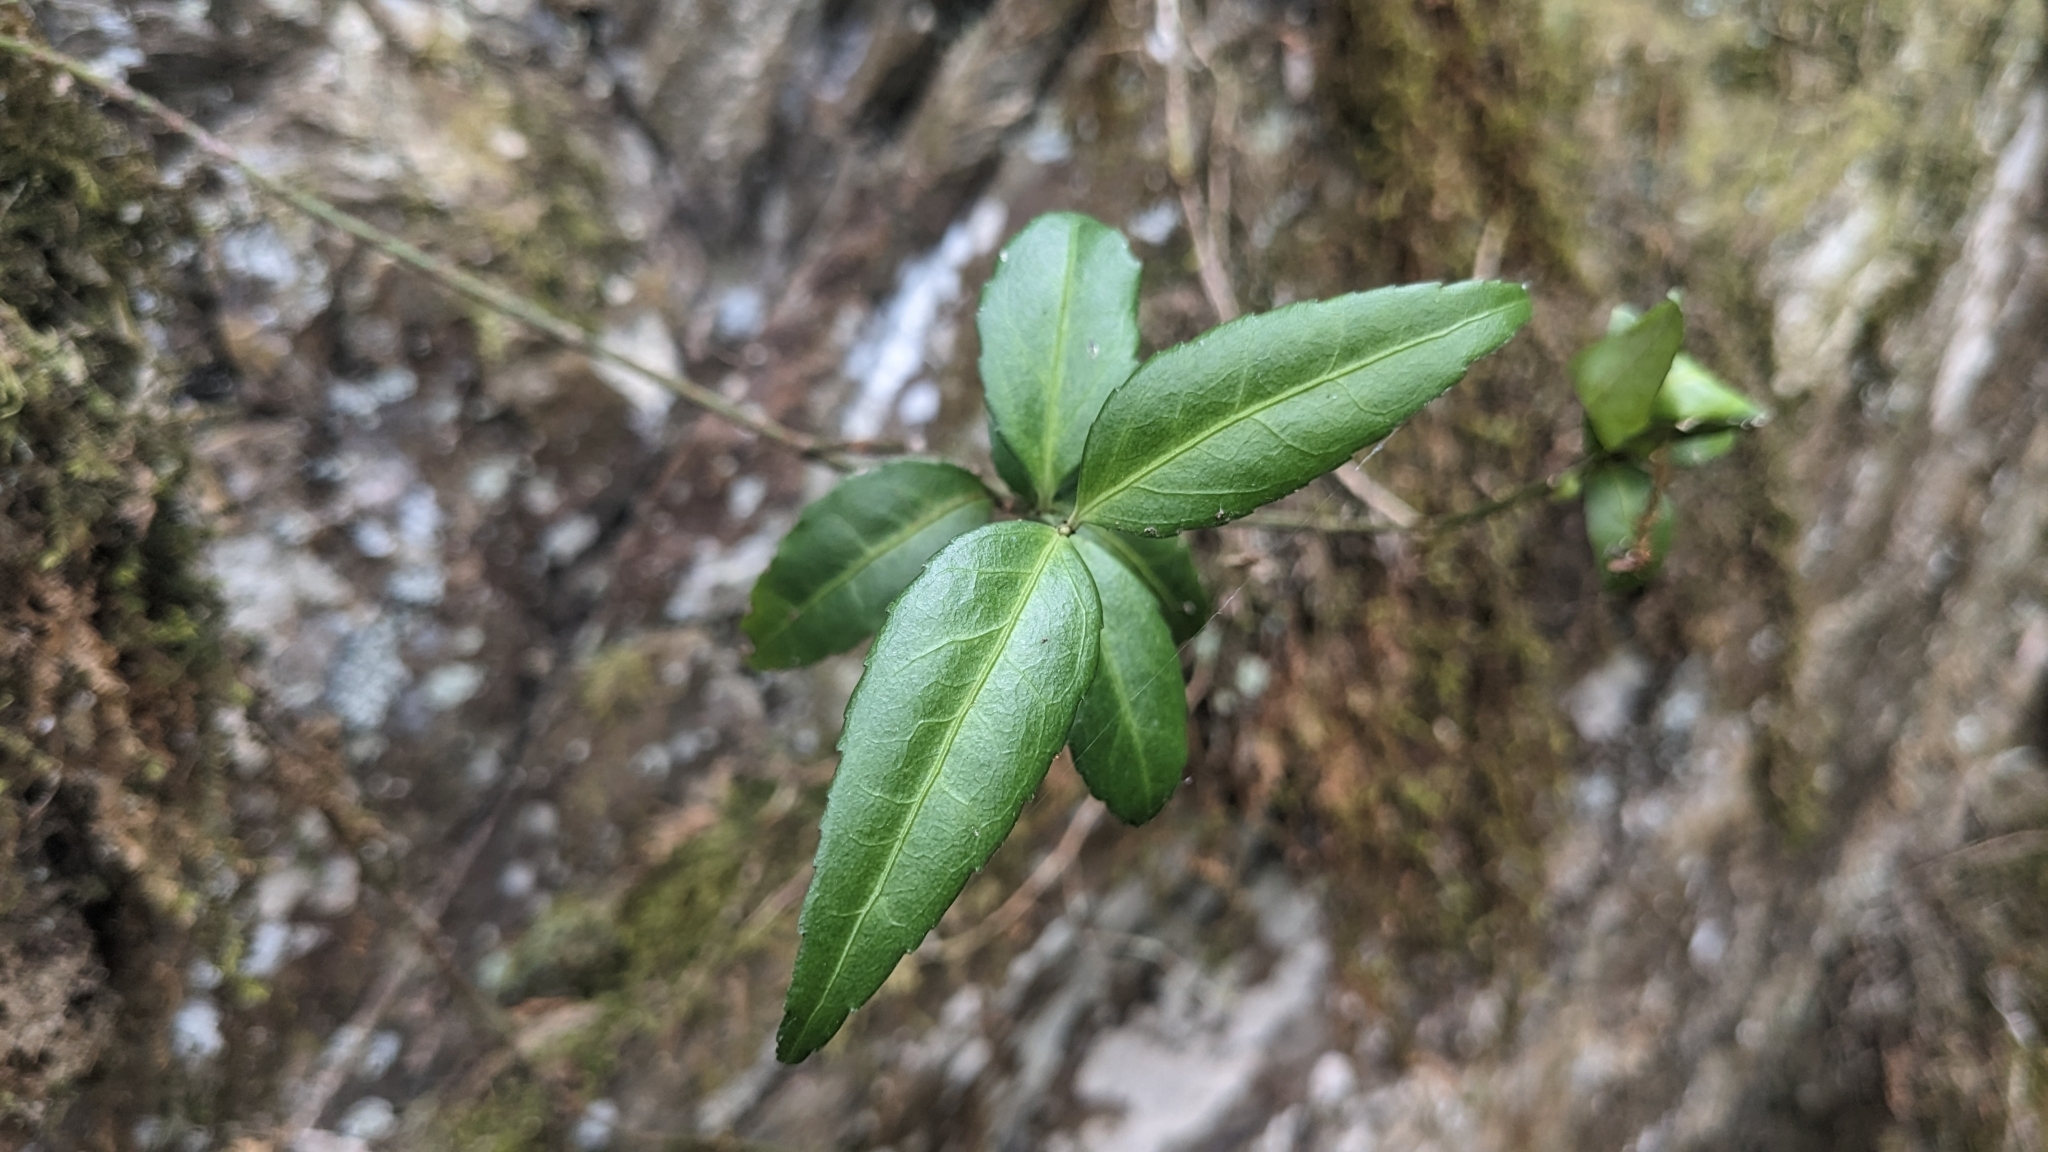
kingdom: Plantae
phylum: Tracheophyta
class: Magnoliopsida
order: Celastrales
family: Celastraceae
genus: Euonymus
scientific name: Euonymus spraguei
